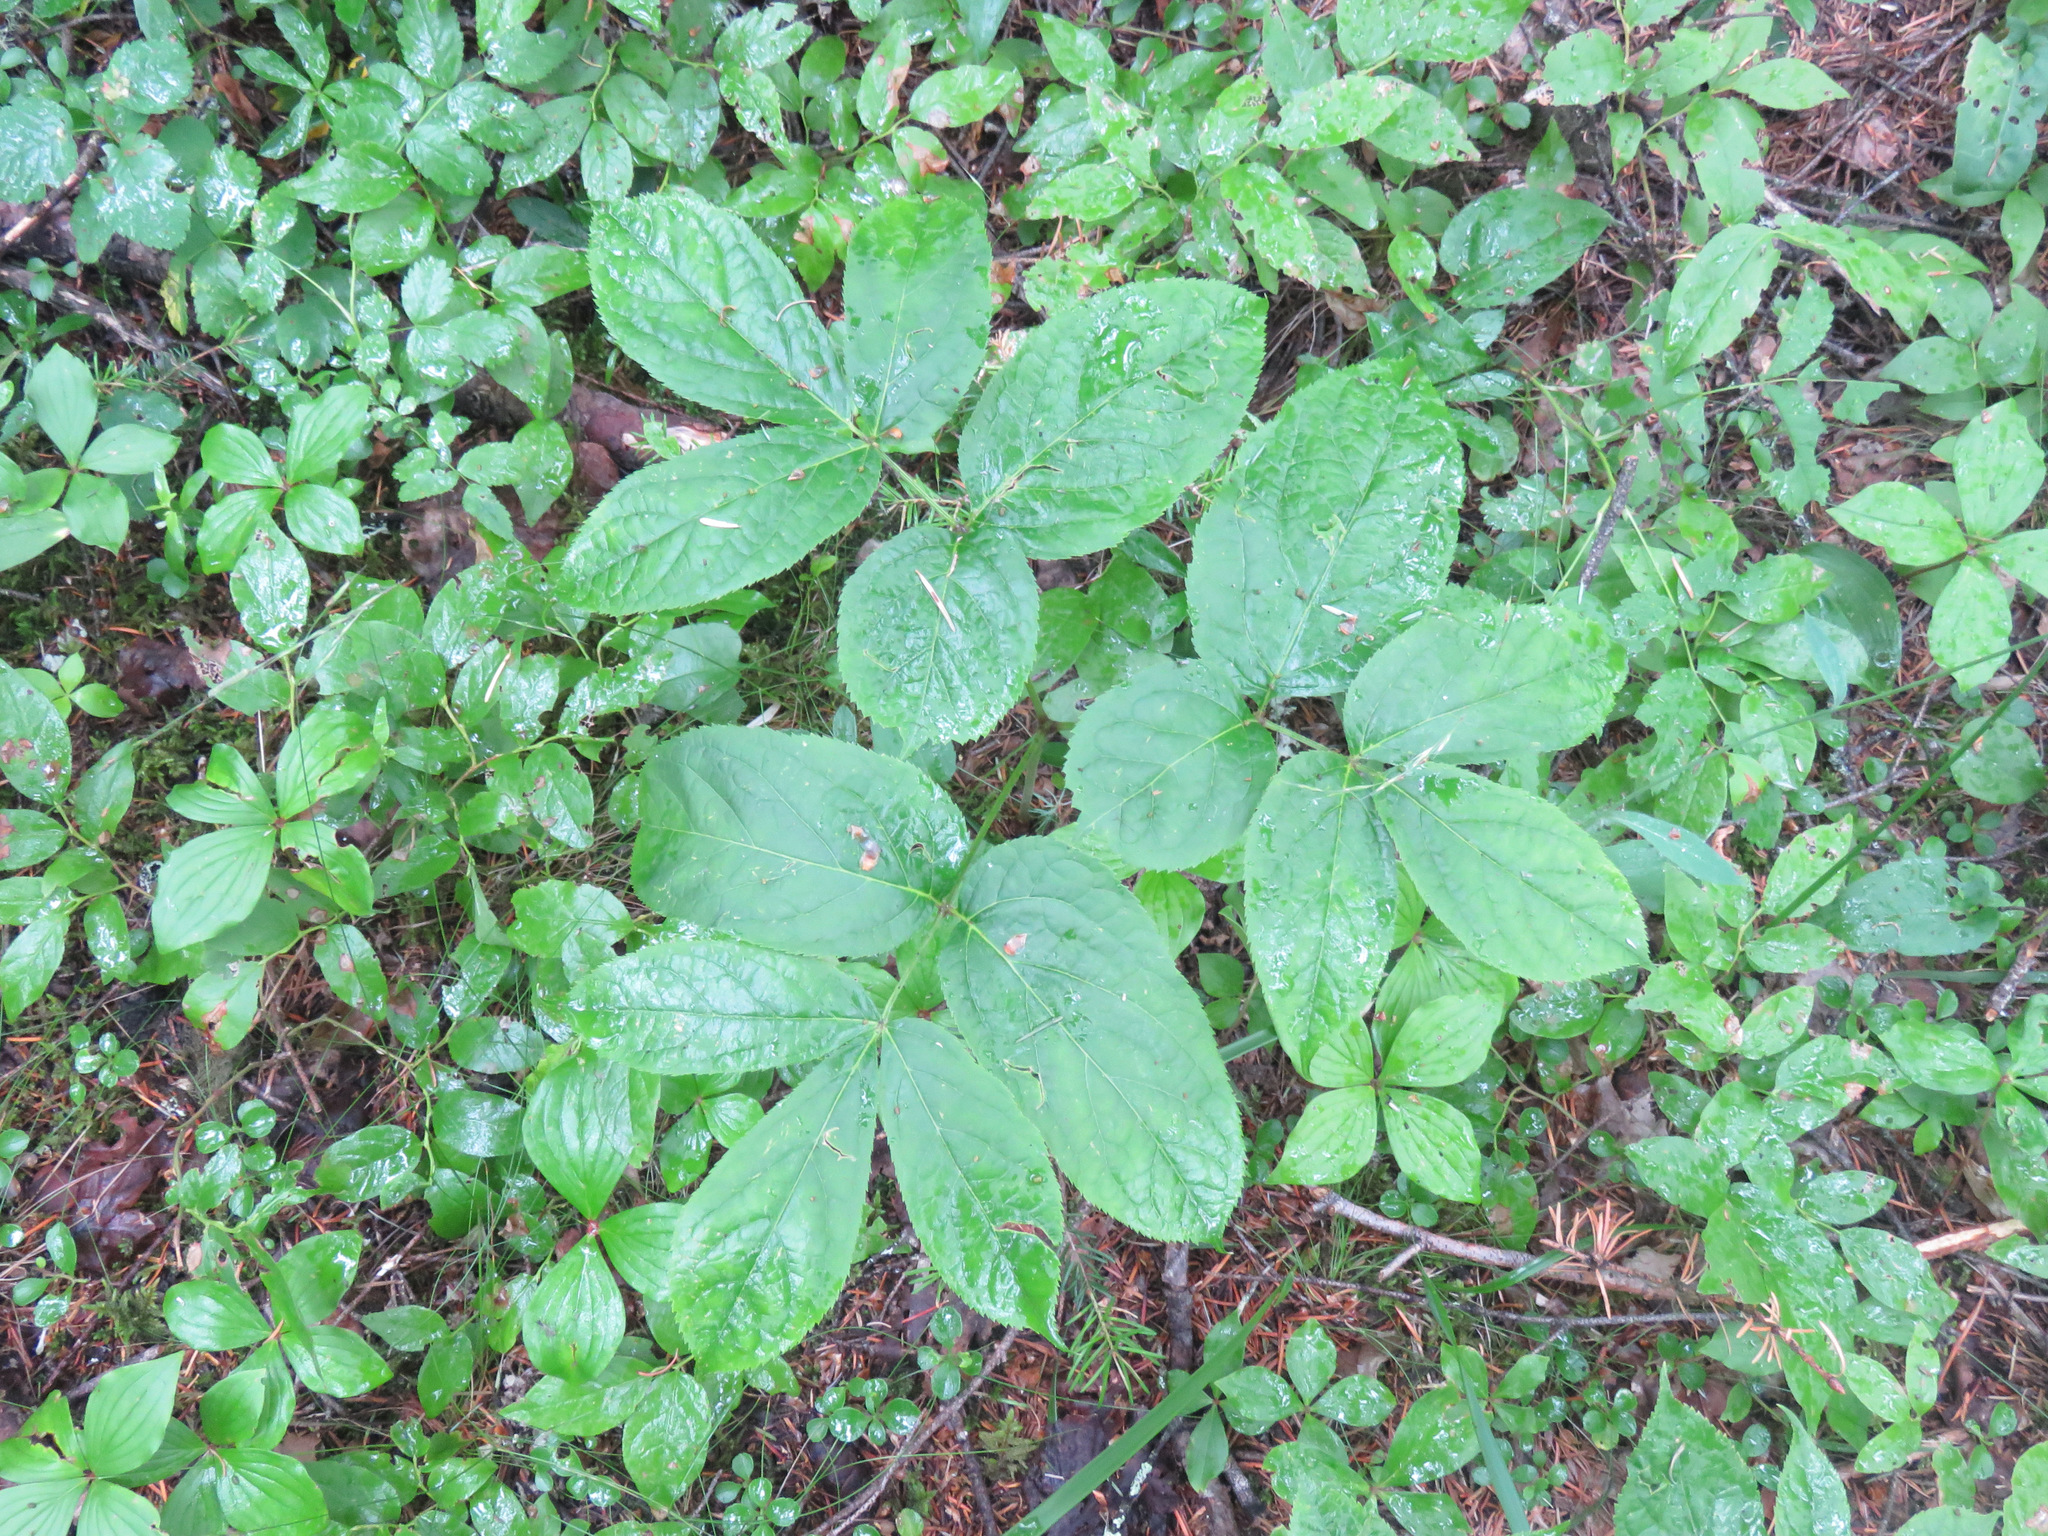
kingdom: Plantae
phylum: Tracheophyta
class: Magnoliopsida
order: Apiales
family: Araliaceae
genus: Aralia
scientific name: Aralia nudicaulis
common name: Wild sarsaparilla
